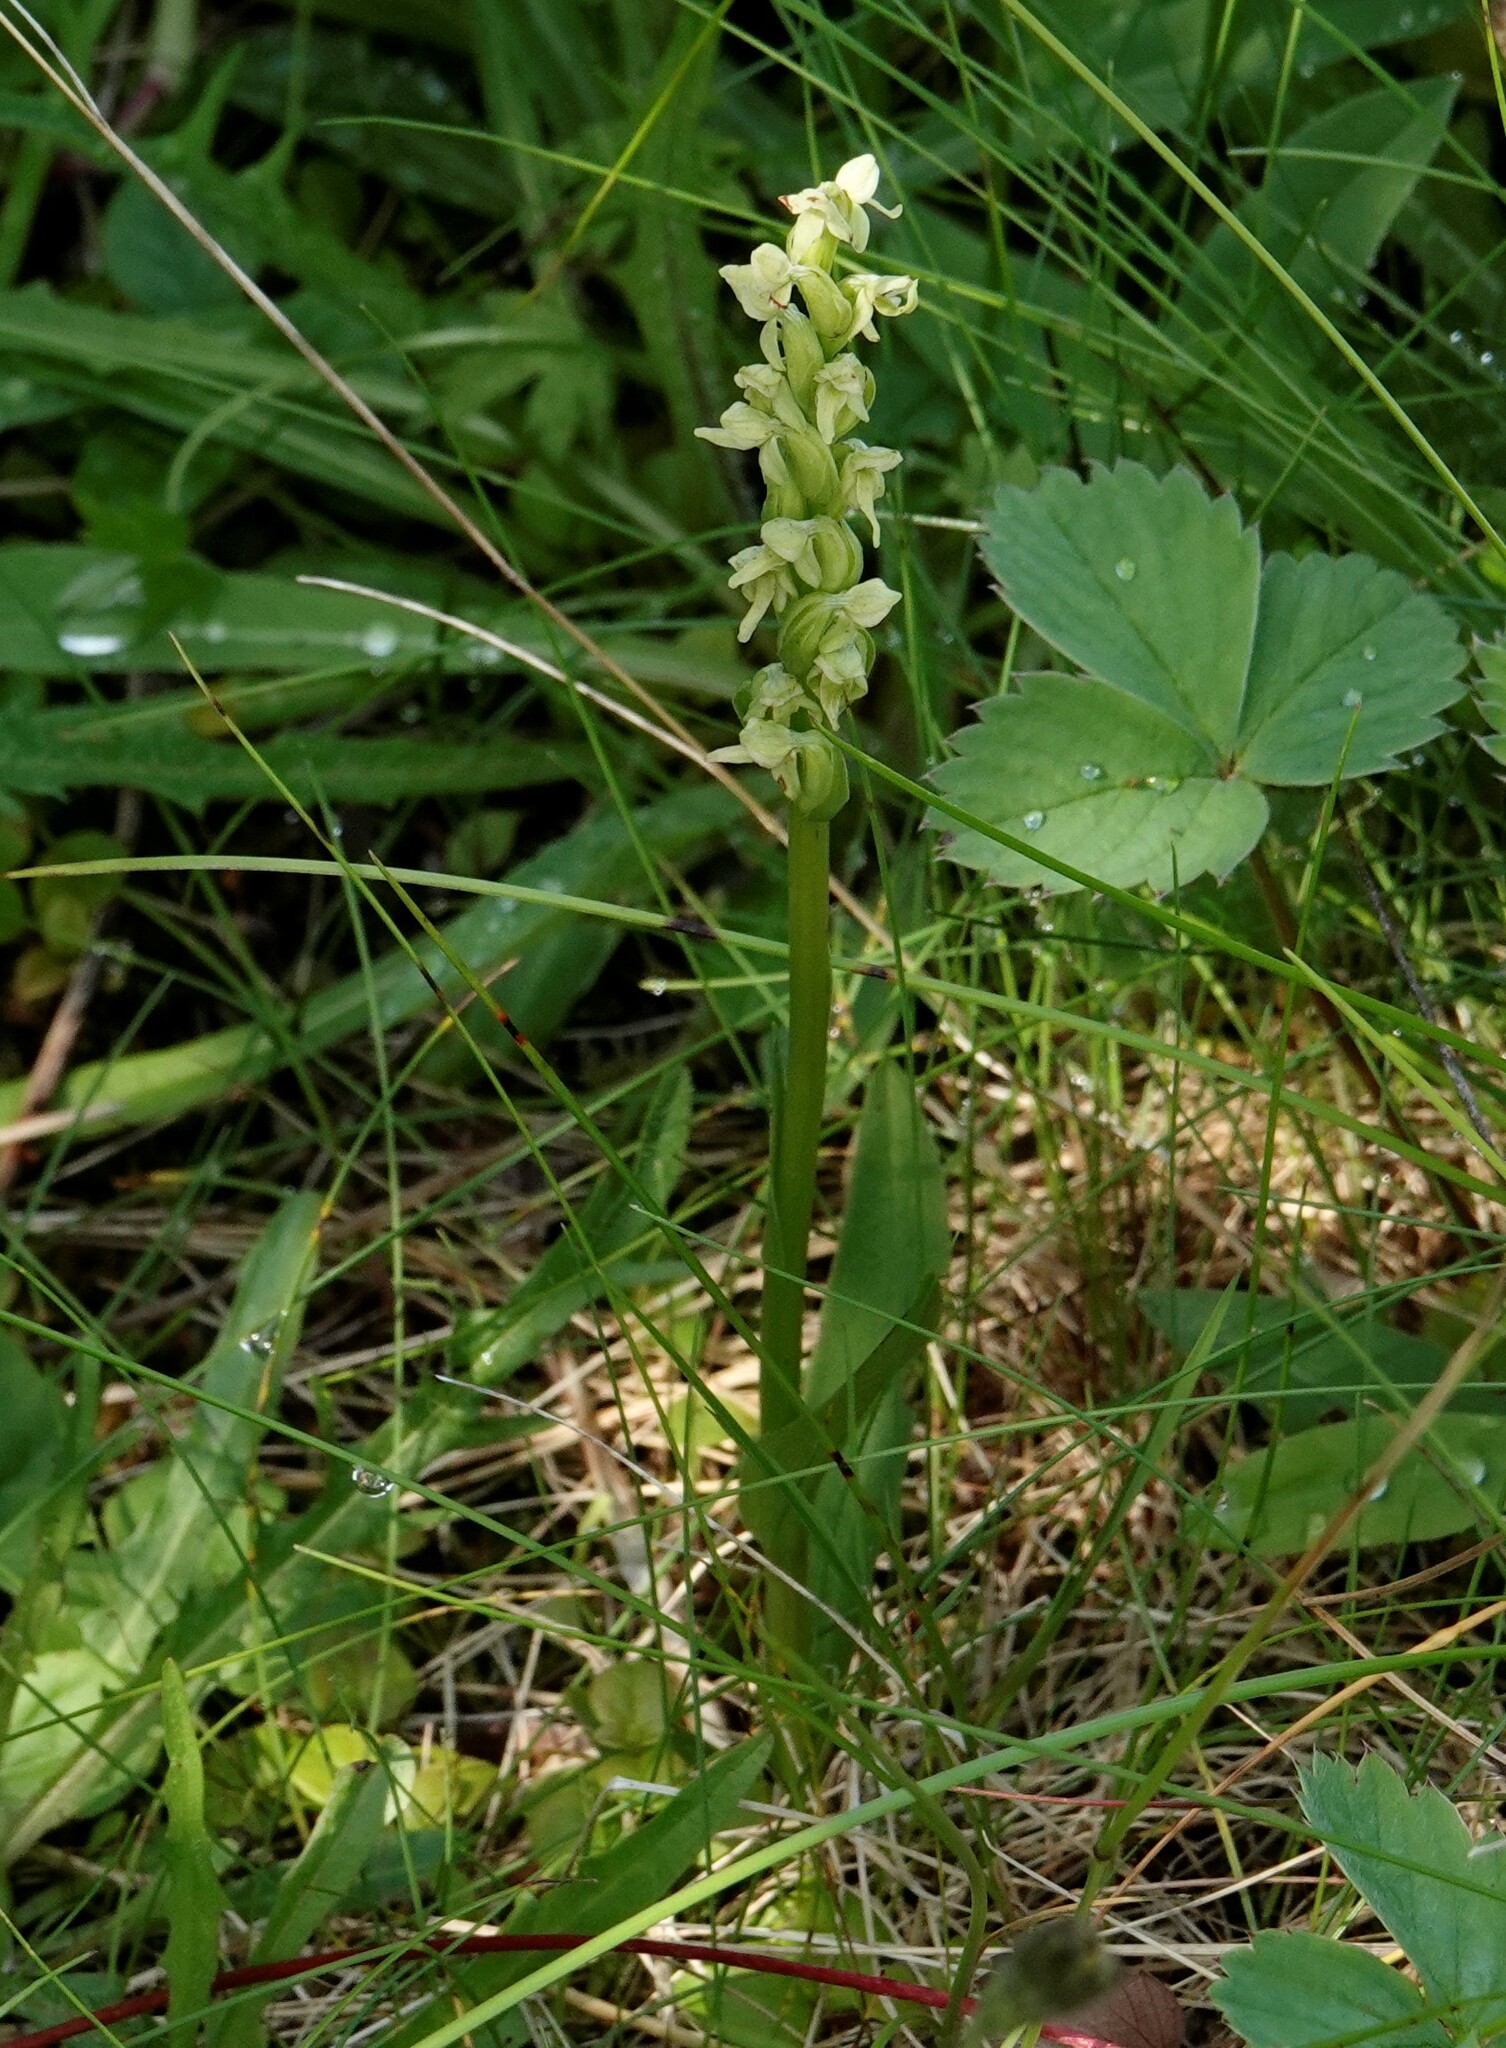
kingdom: Plantae
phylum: Tracheophyta
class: Liliopsida
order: Asparagales
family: Orchidaceae
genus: Platanthera
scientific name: Platanthera huronensis
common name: Fragrant green orchid
